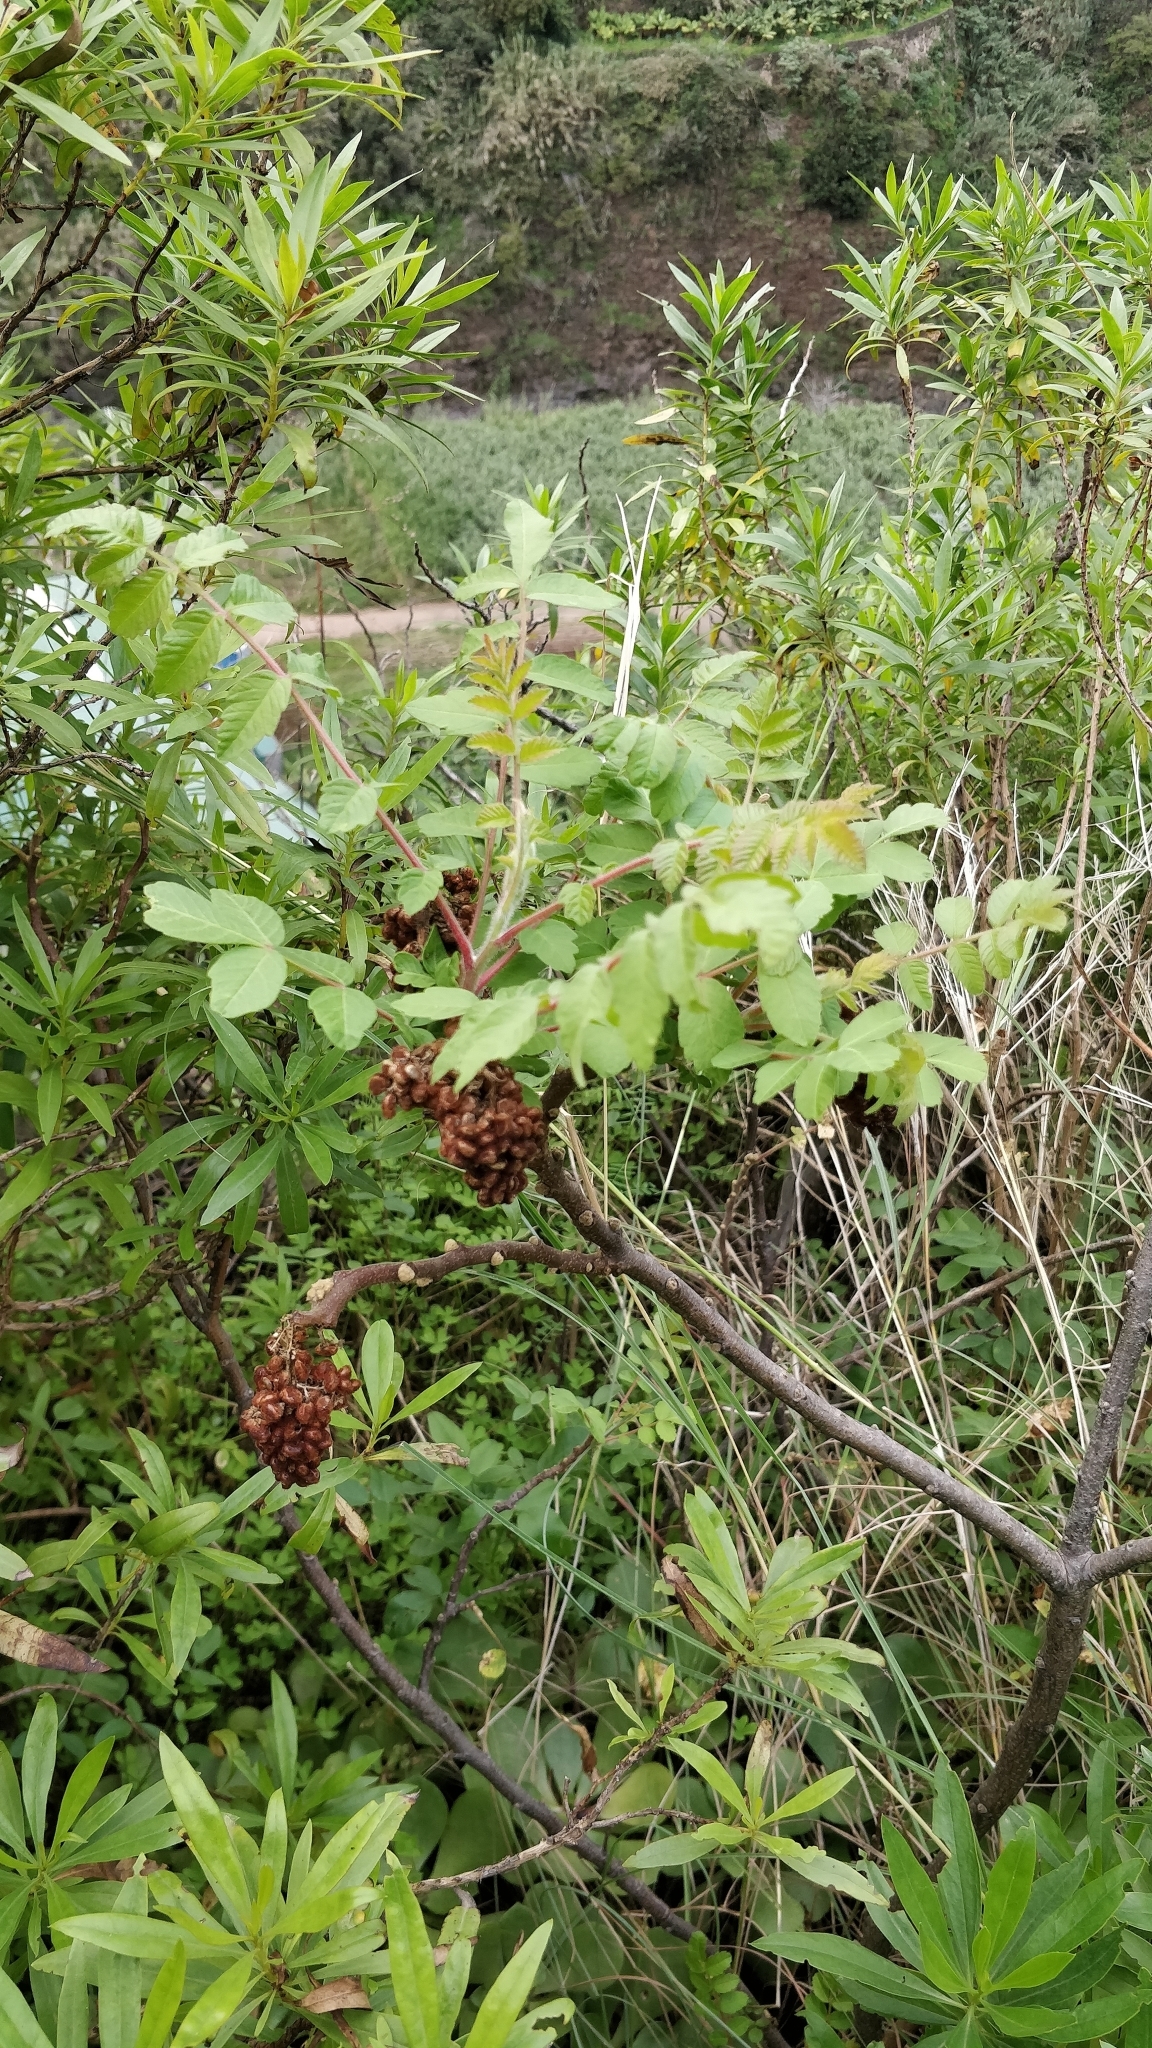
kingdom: Plantae
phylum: Tracheophyta
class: Magnoliopsida
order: Sapindales
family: Anacardiaceae
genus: Rhus
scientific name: Rhus coriaria
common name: Tanner's sumach
